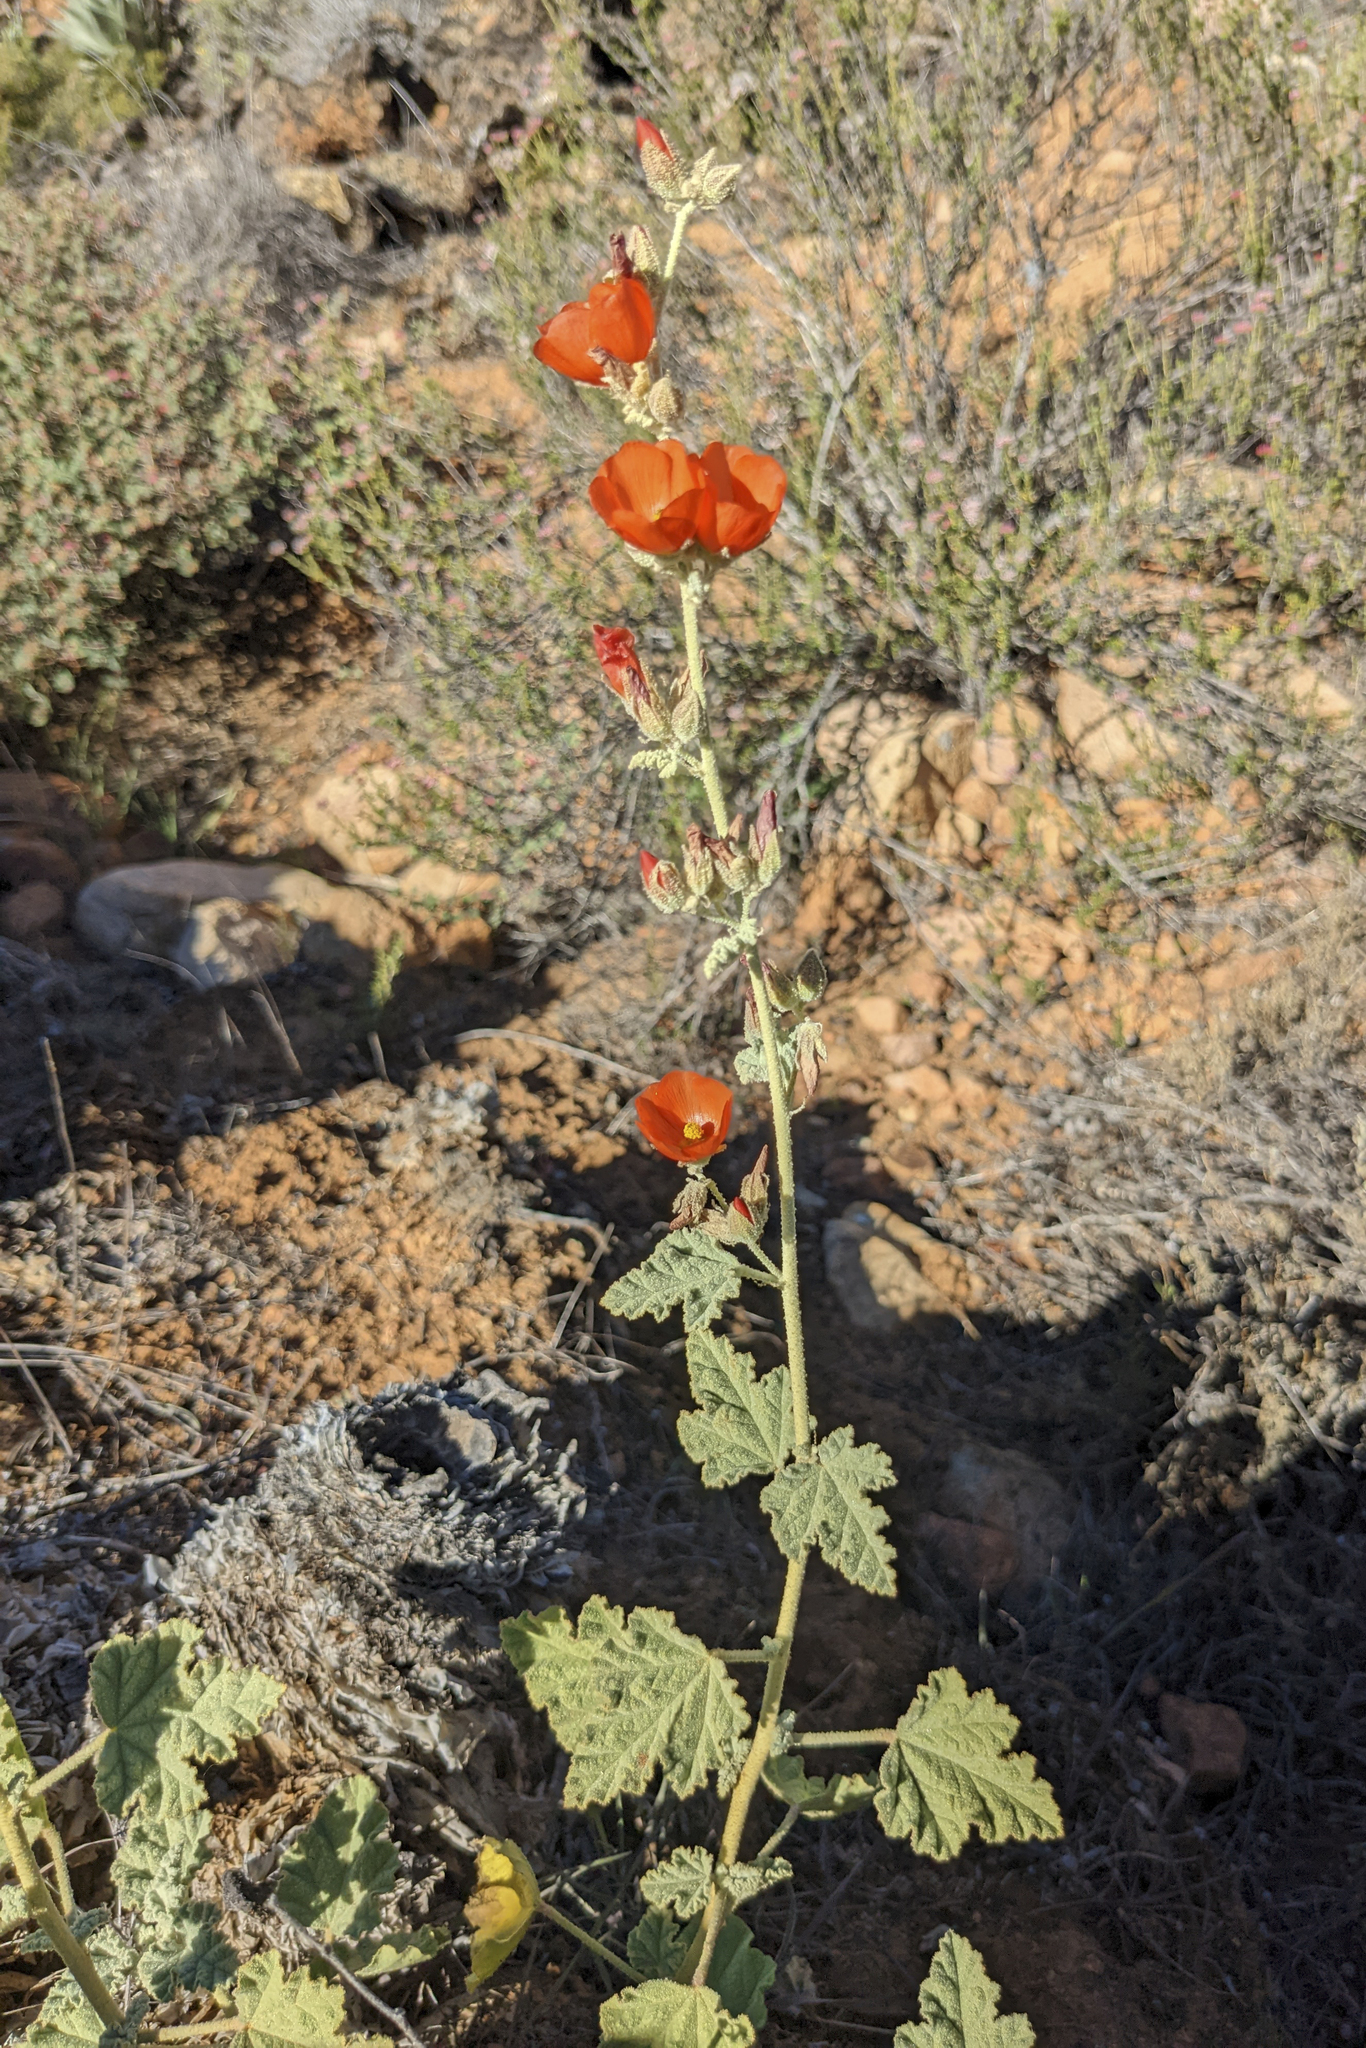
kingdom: Plantae
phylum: Tracheophyta
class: Magnoliopsida
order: Malvales
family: Malvaceae
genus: Sphaeralcea
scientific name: Sphaeralcea ambigua
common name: Apricot globe-mallow
